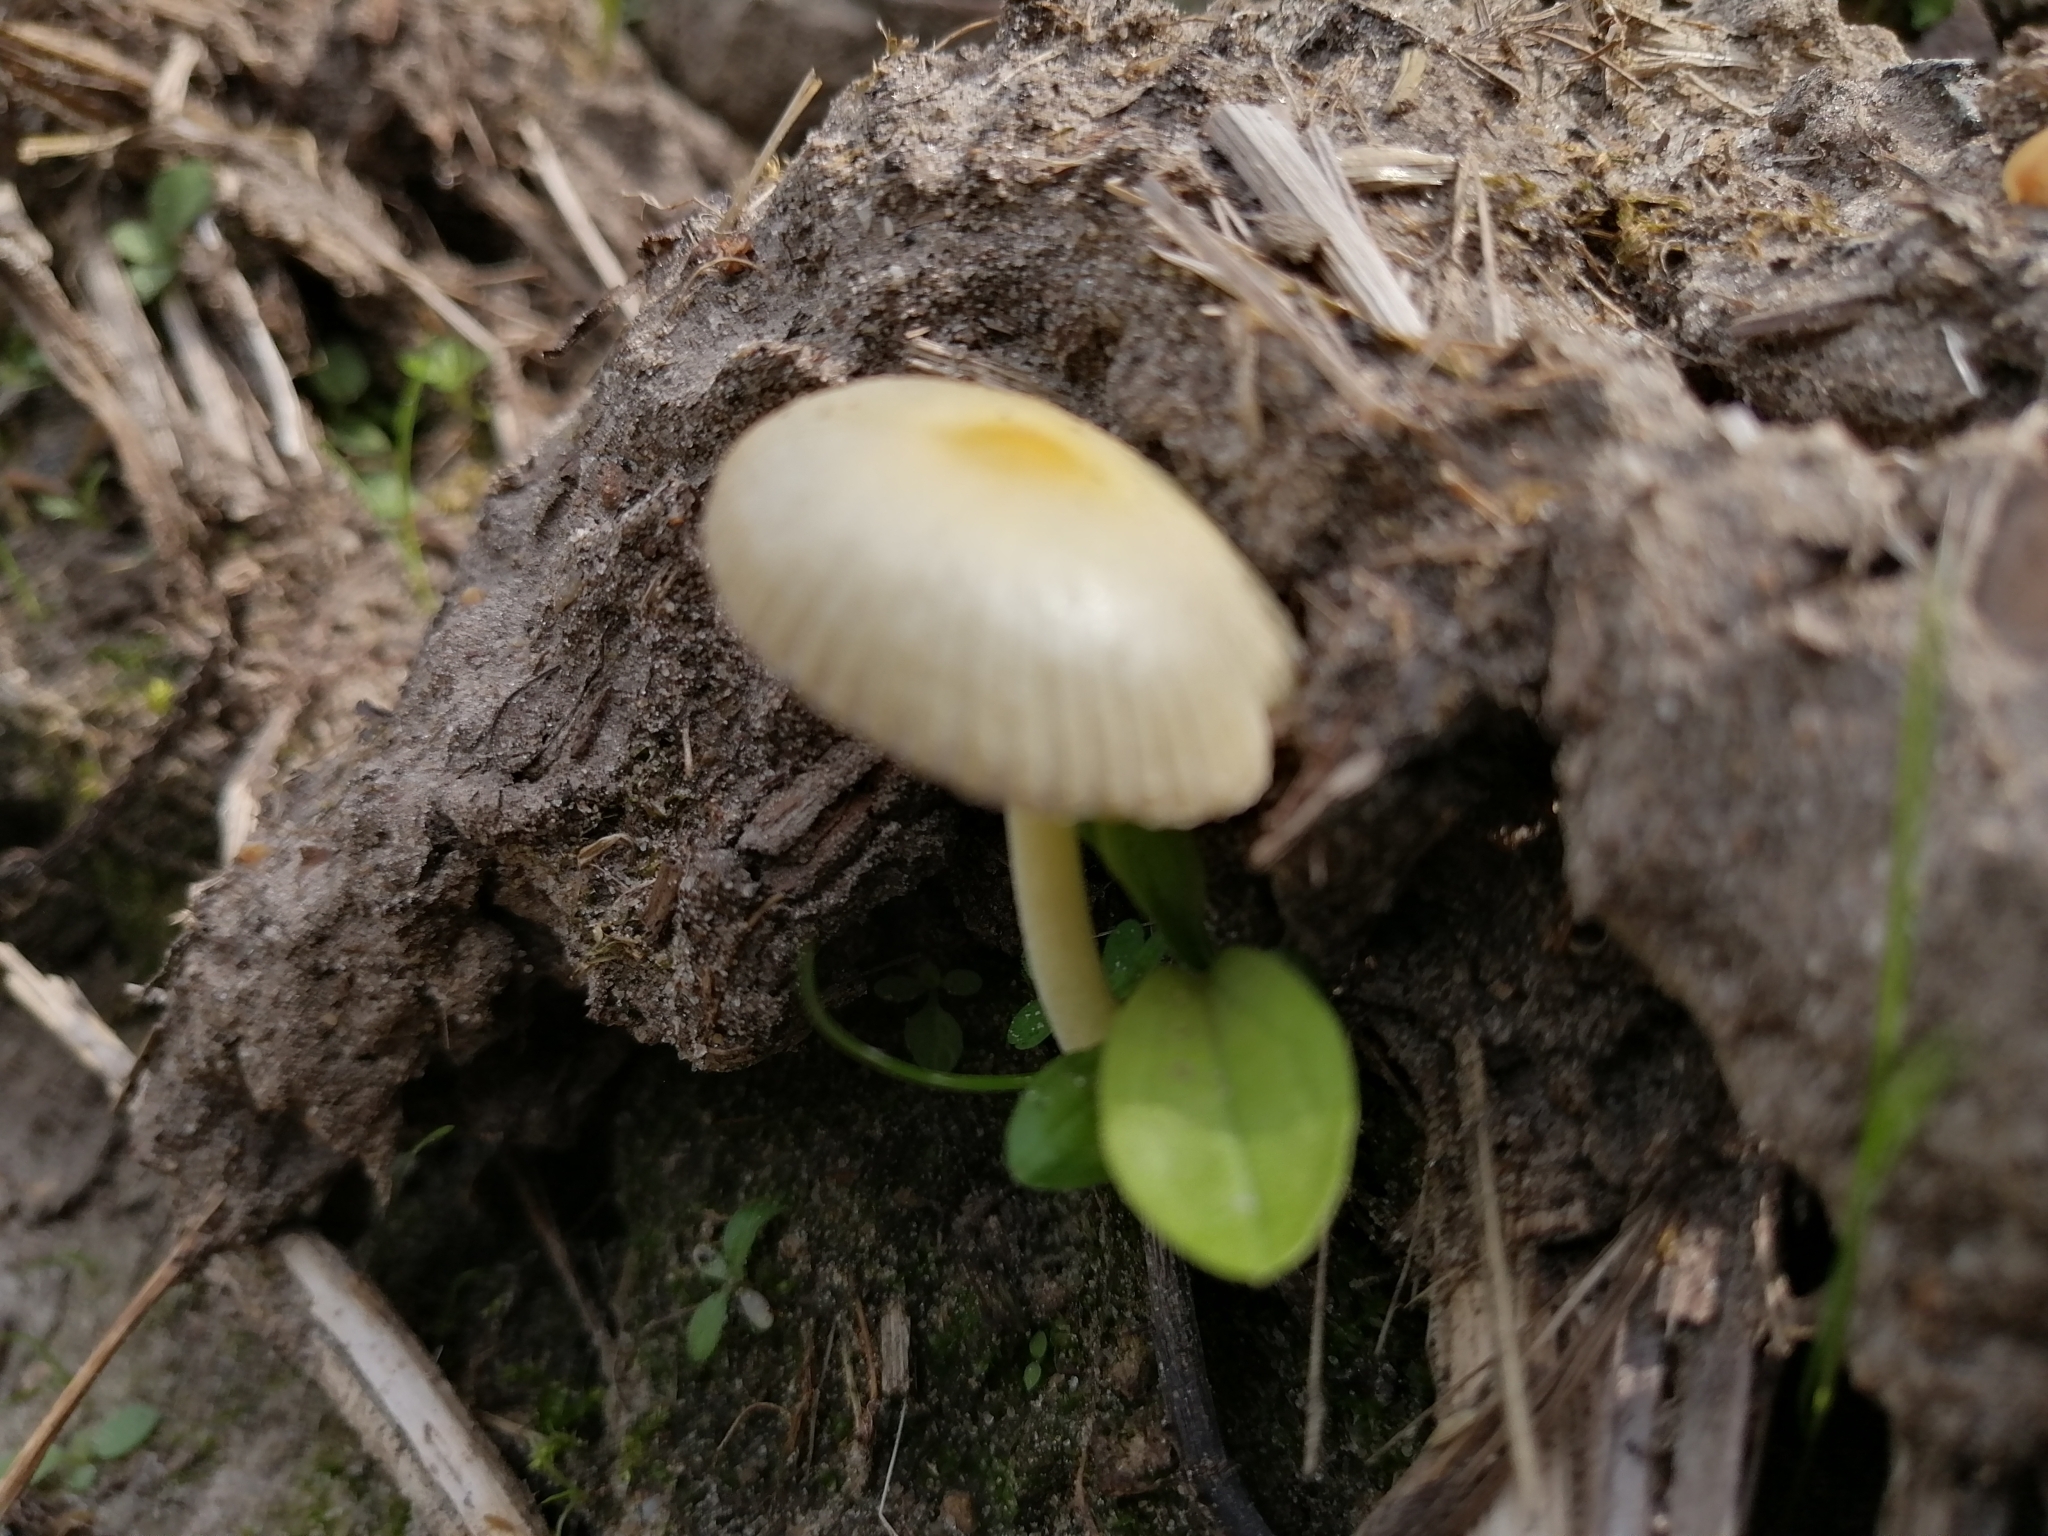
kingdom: Fungi
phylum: Basidiomycota
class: Agaricomycetes
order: Agaricales
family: Bolbitiaceae
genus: Bolbitius
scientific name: Bolbitius titubans
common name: Yellow fieldcap
